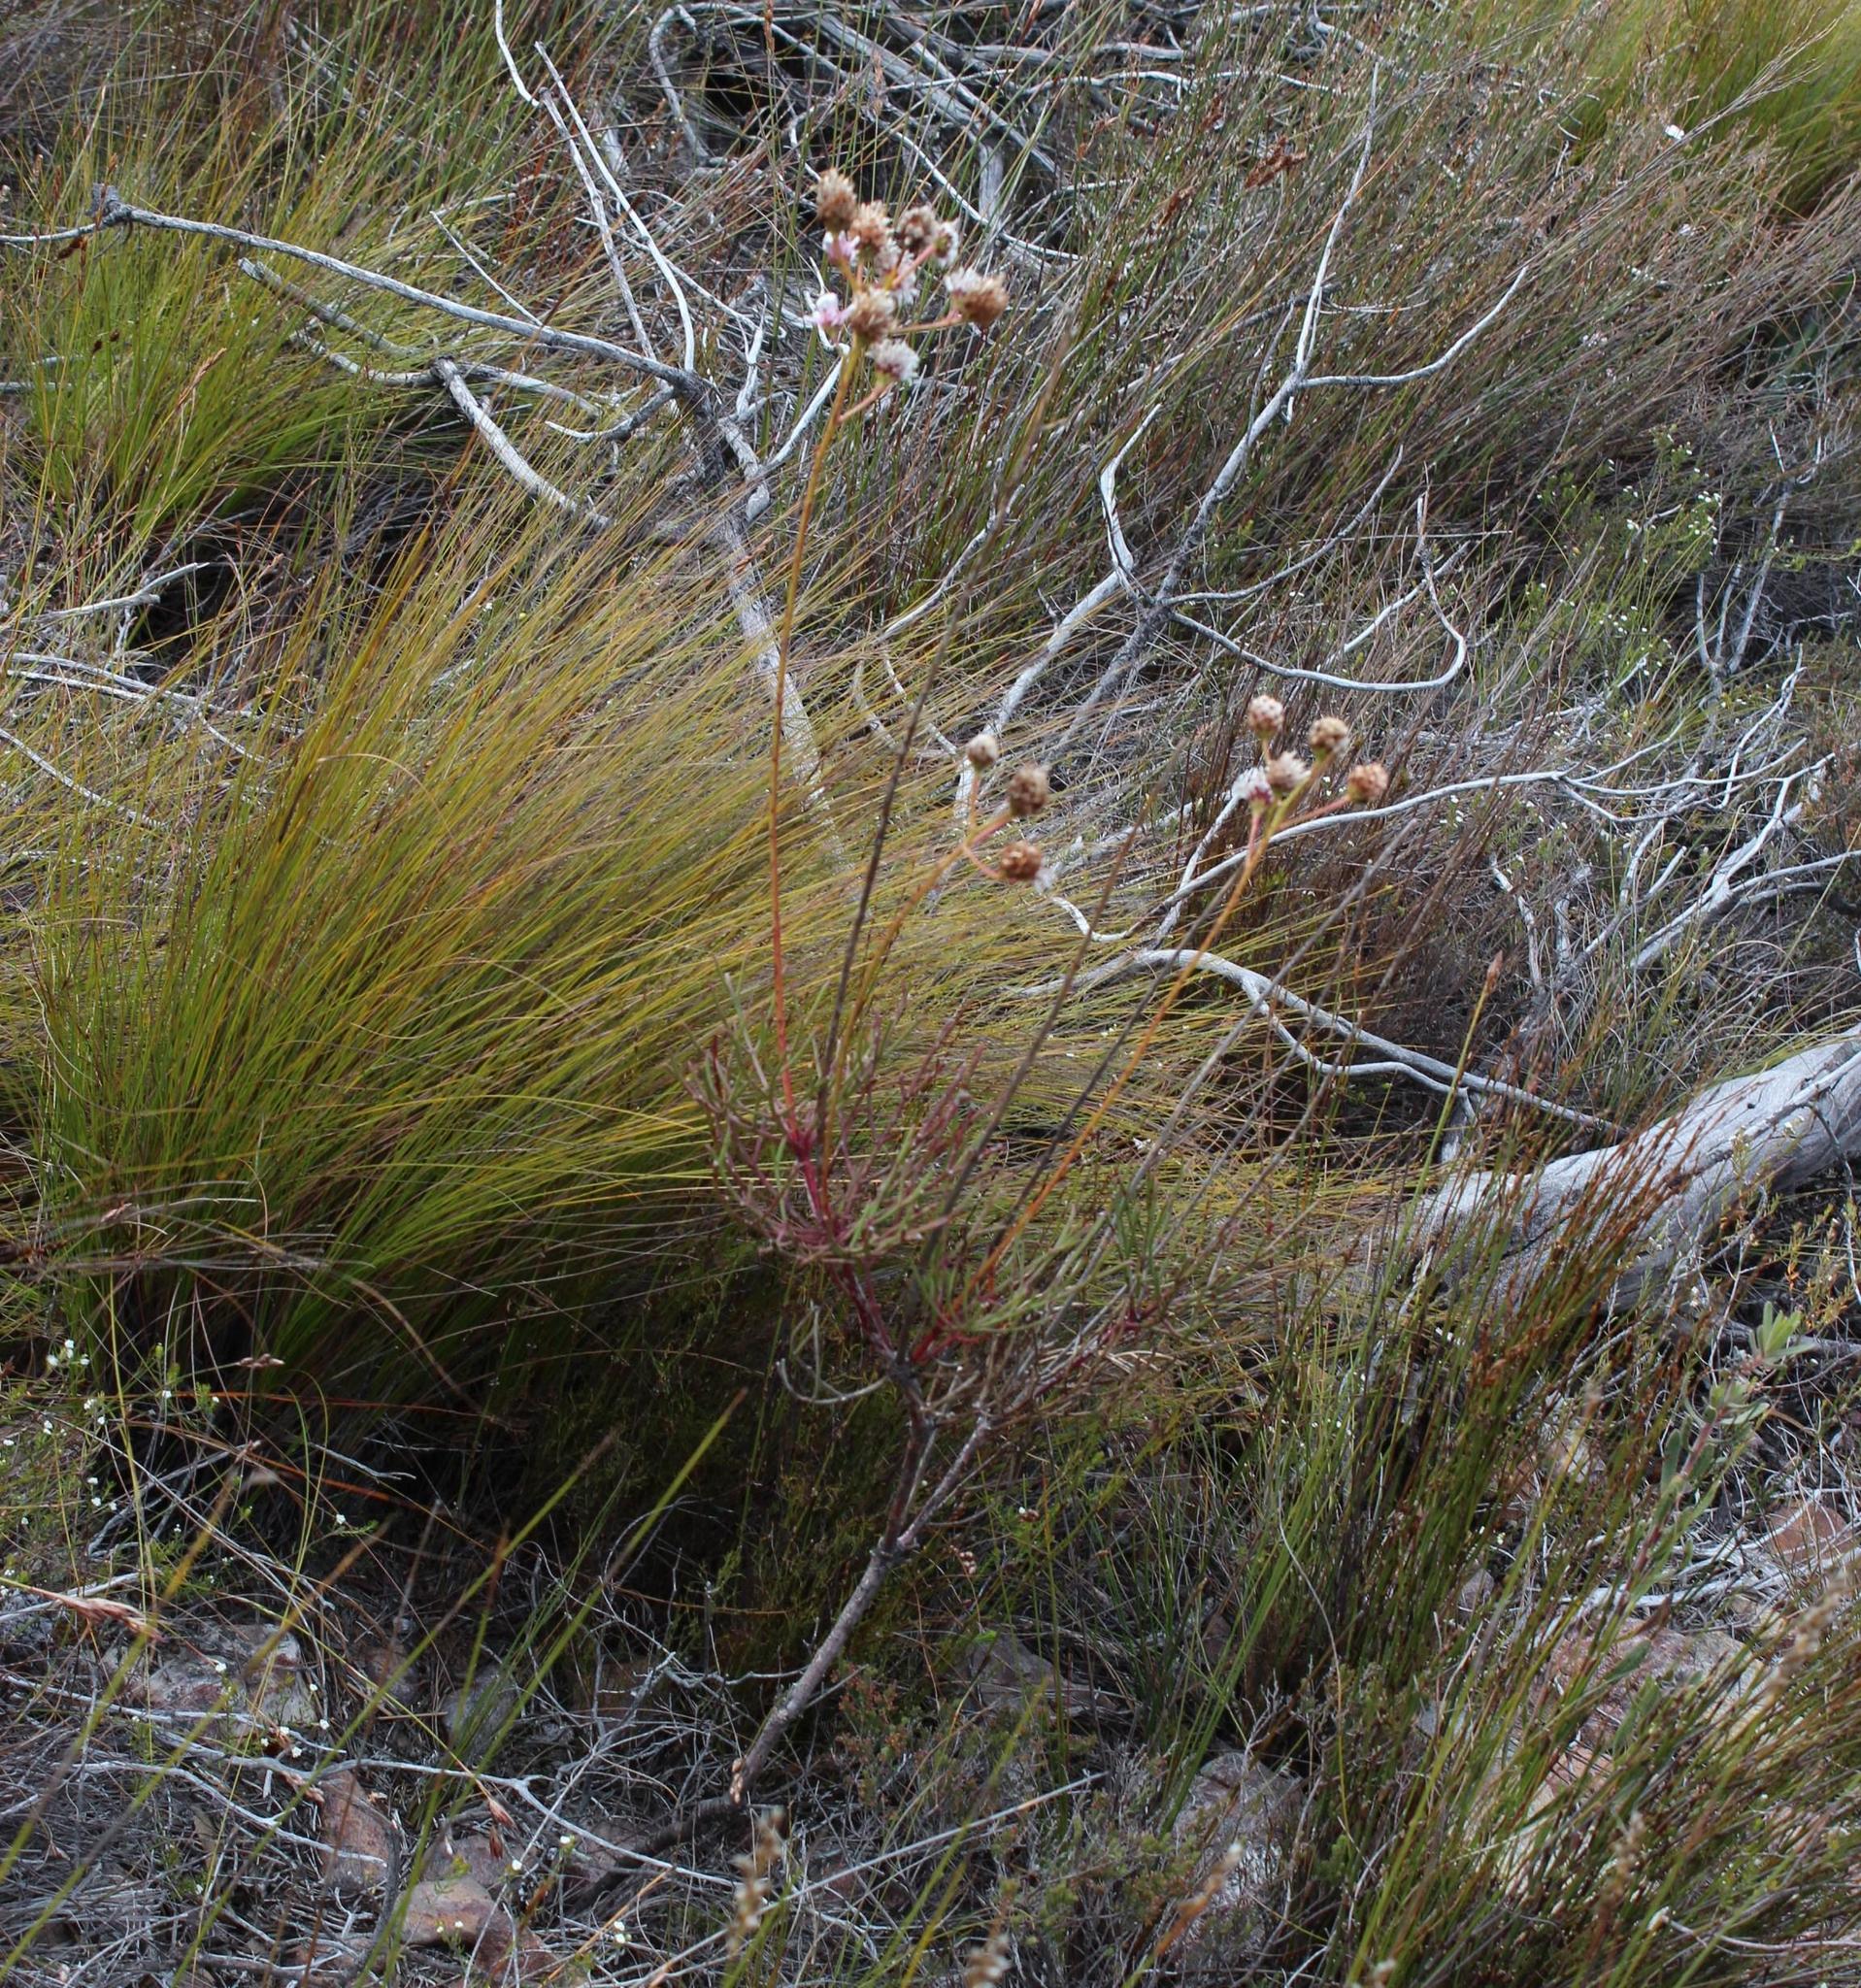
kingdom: Plantae
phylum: Tracheophyta
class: Magnoliopsida
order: Proteales
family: Proteaceae
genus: Serruria
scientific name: Serruria williamsii
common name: King spiderhead
